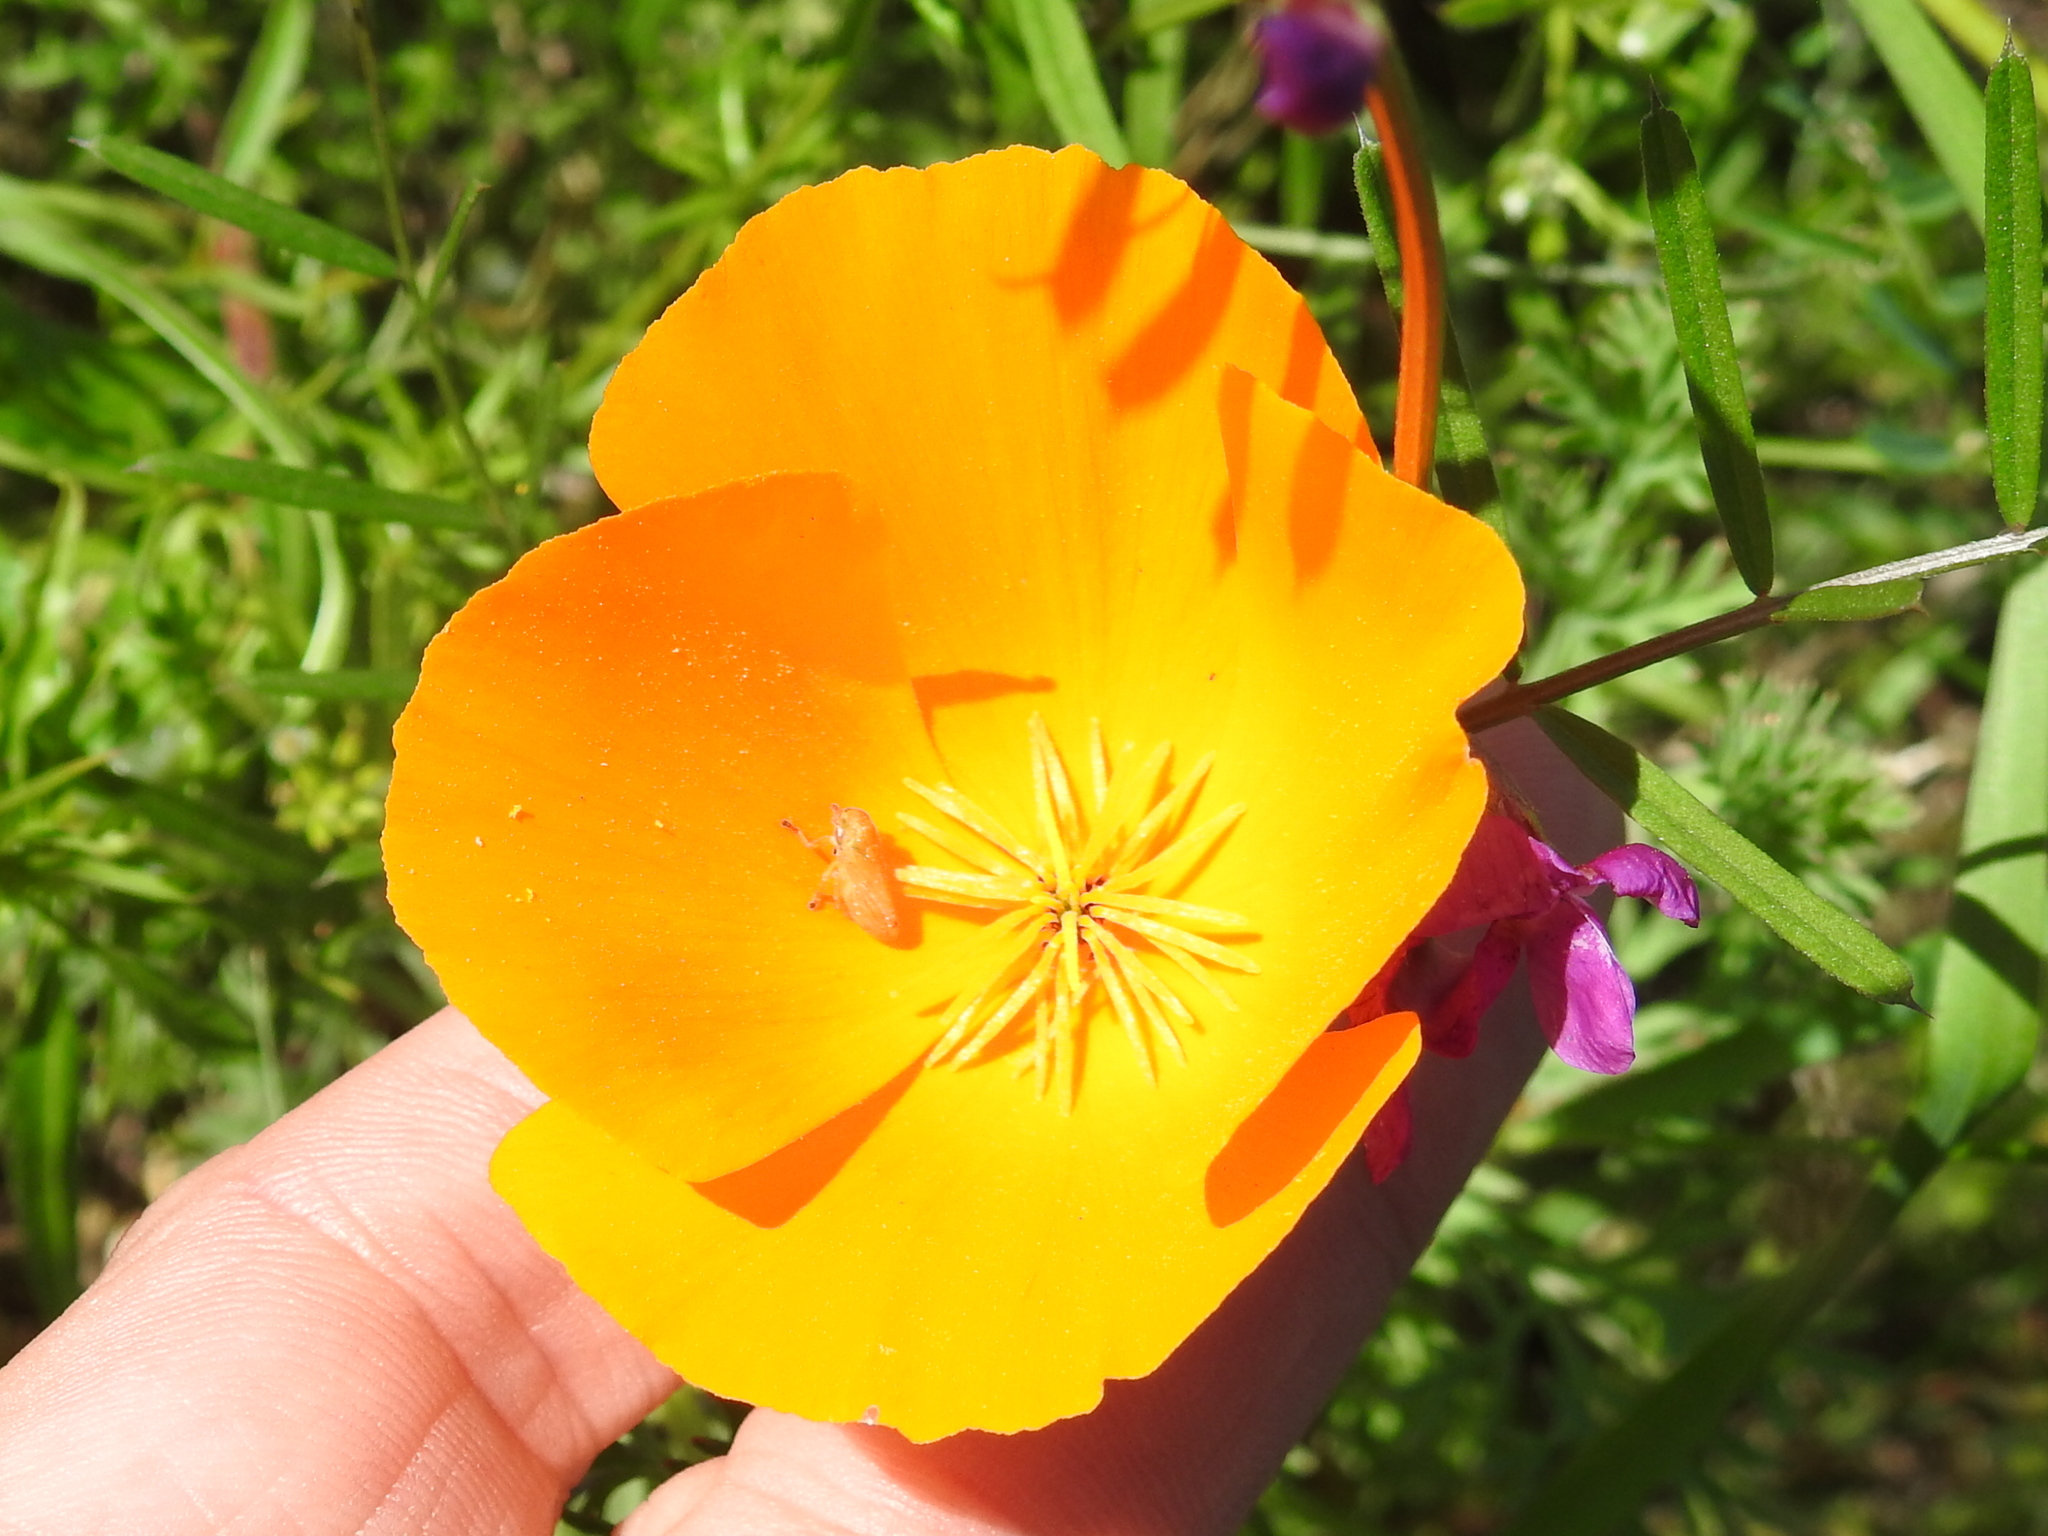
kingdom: Plantae
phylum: Tracheophyta
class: Magnoliopsida
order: Ranunculales
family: Papaveraceae
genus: Eschscholzia
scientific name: Eschscholzia californica
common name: California poppy
